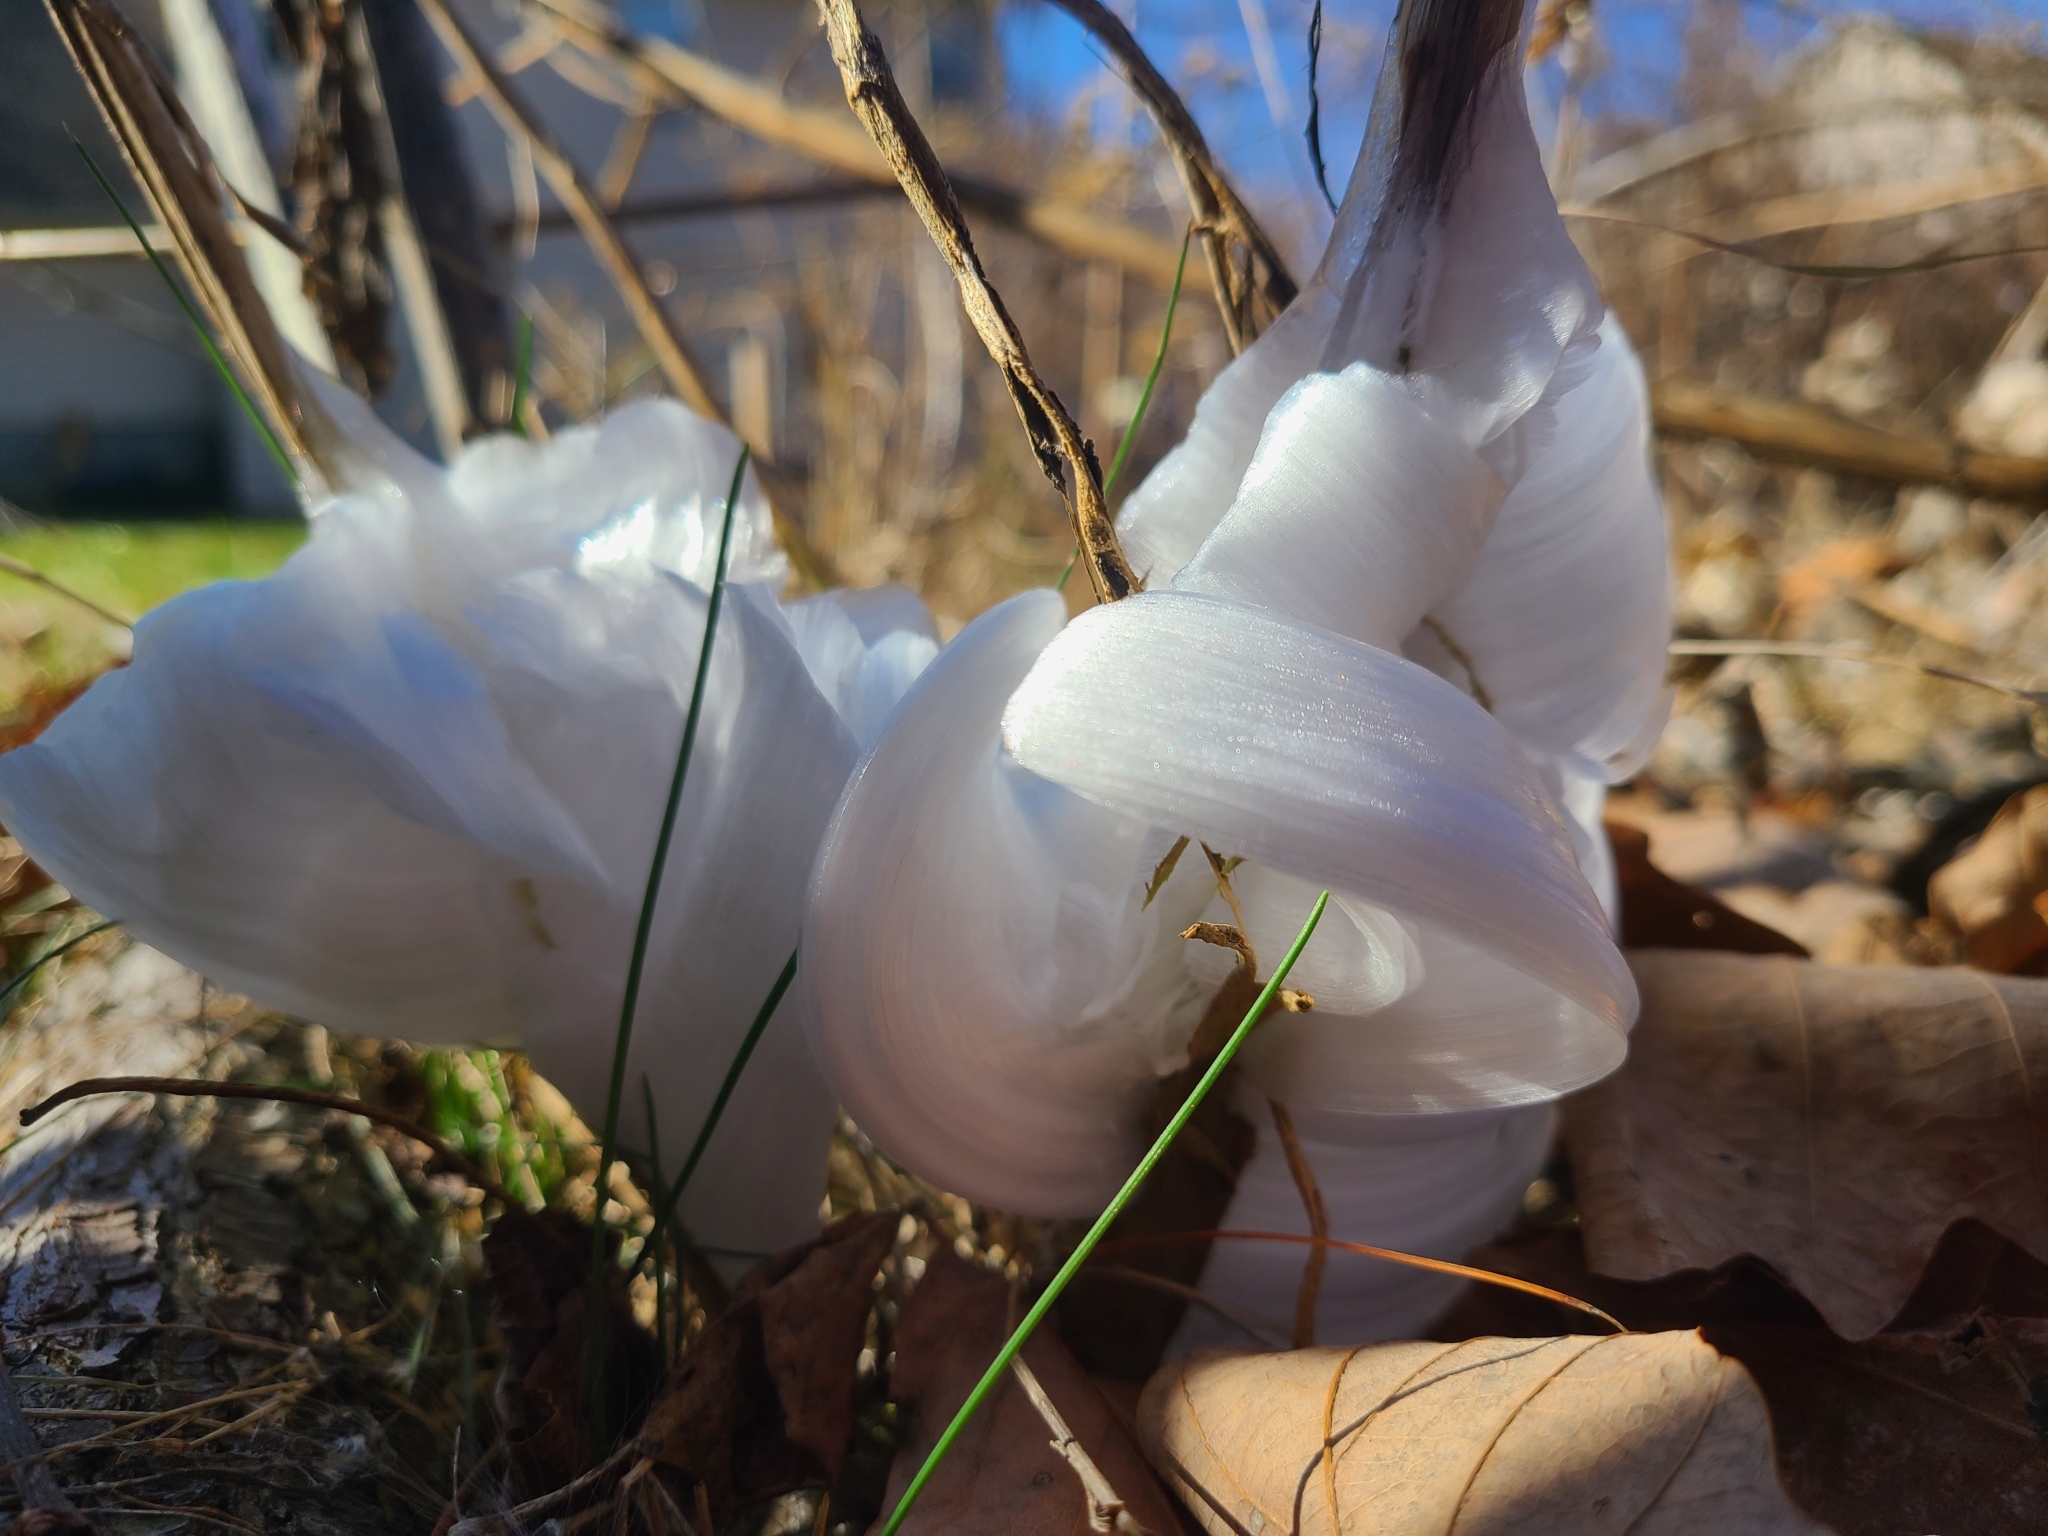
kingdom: Plantae
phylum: Tracheophyta
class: Magnoliopsida
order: Asterales
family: Asteraceae
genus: Verbesina
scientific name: Verbesina virginica
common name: Frostweed
